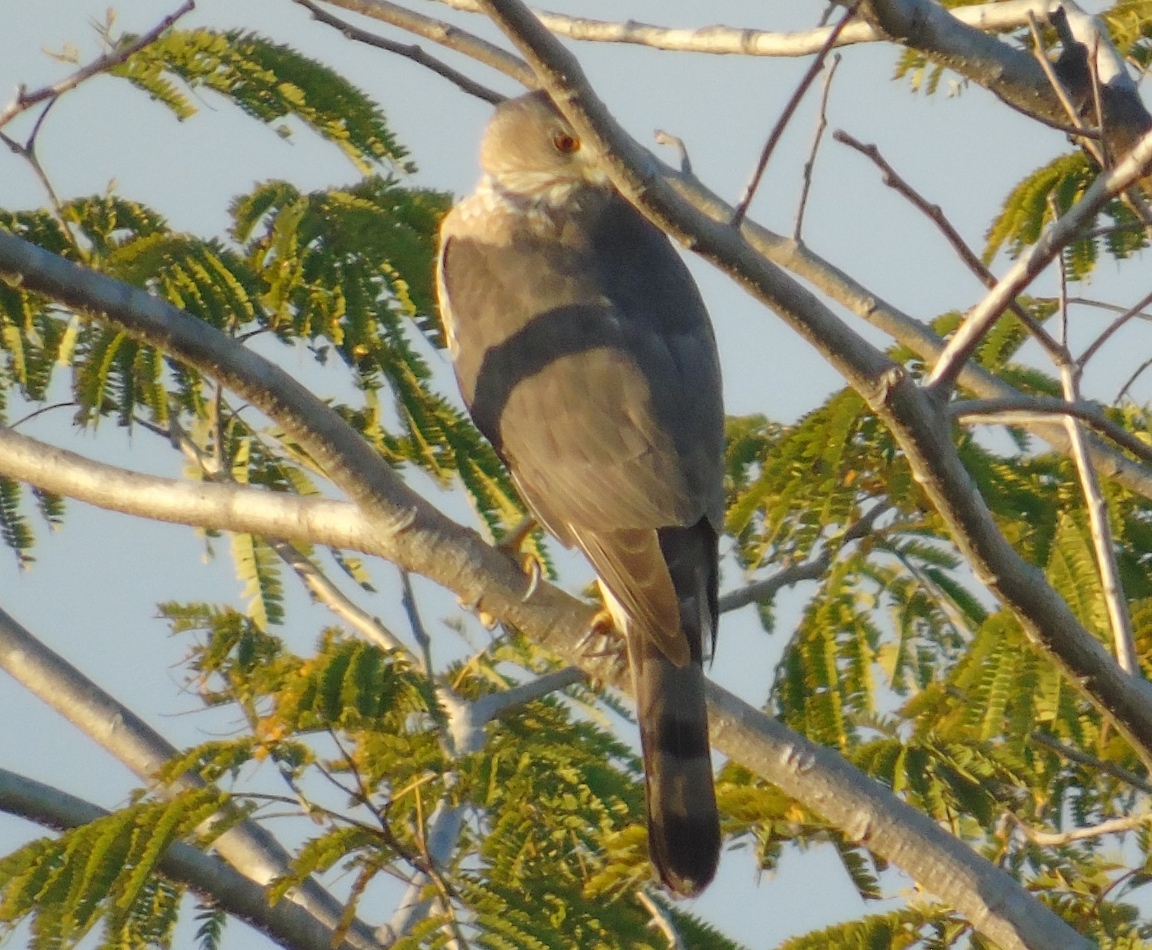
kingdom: Animalia
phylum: Chordata
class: Aves
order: Accipitriformes
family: Accipitridae
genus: Accipiter
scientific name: Accipiter cooperii
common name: Cooper's hawk
